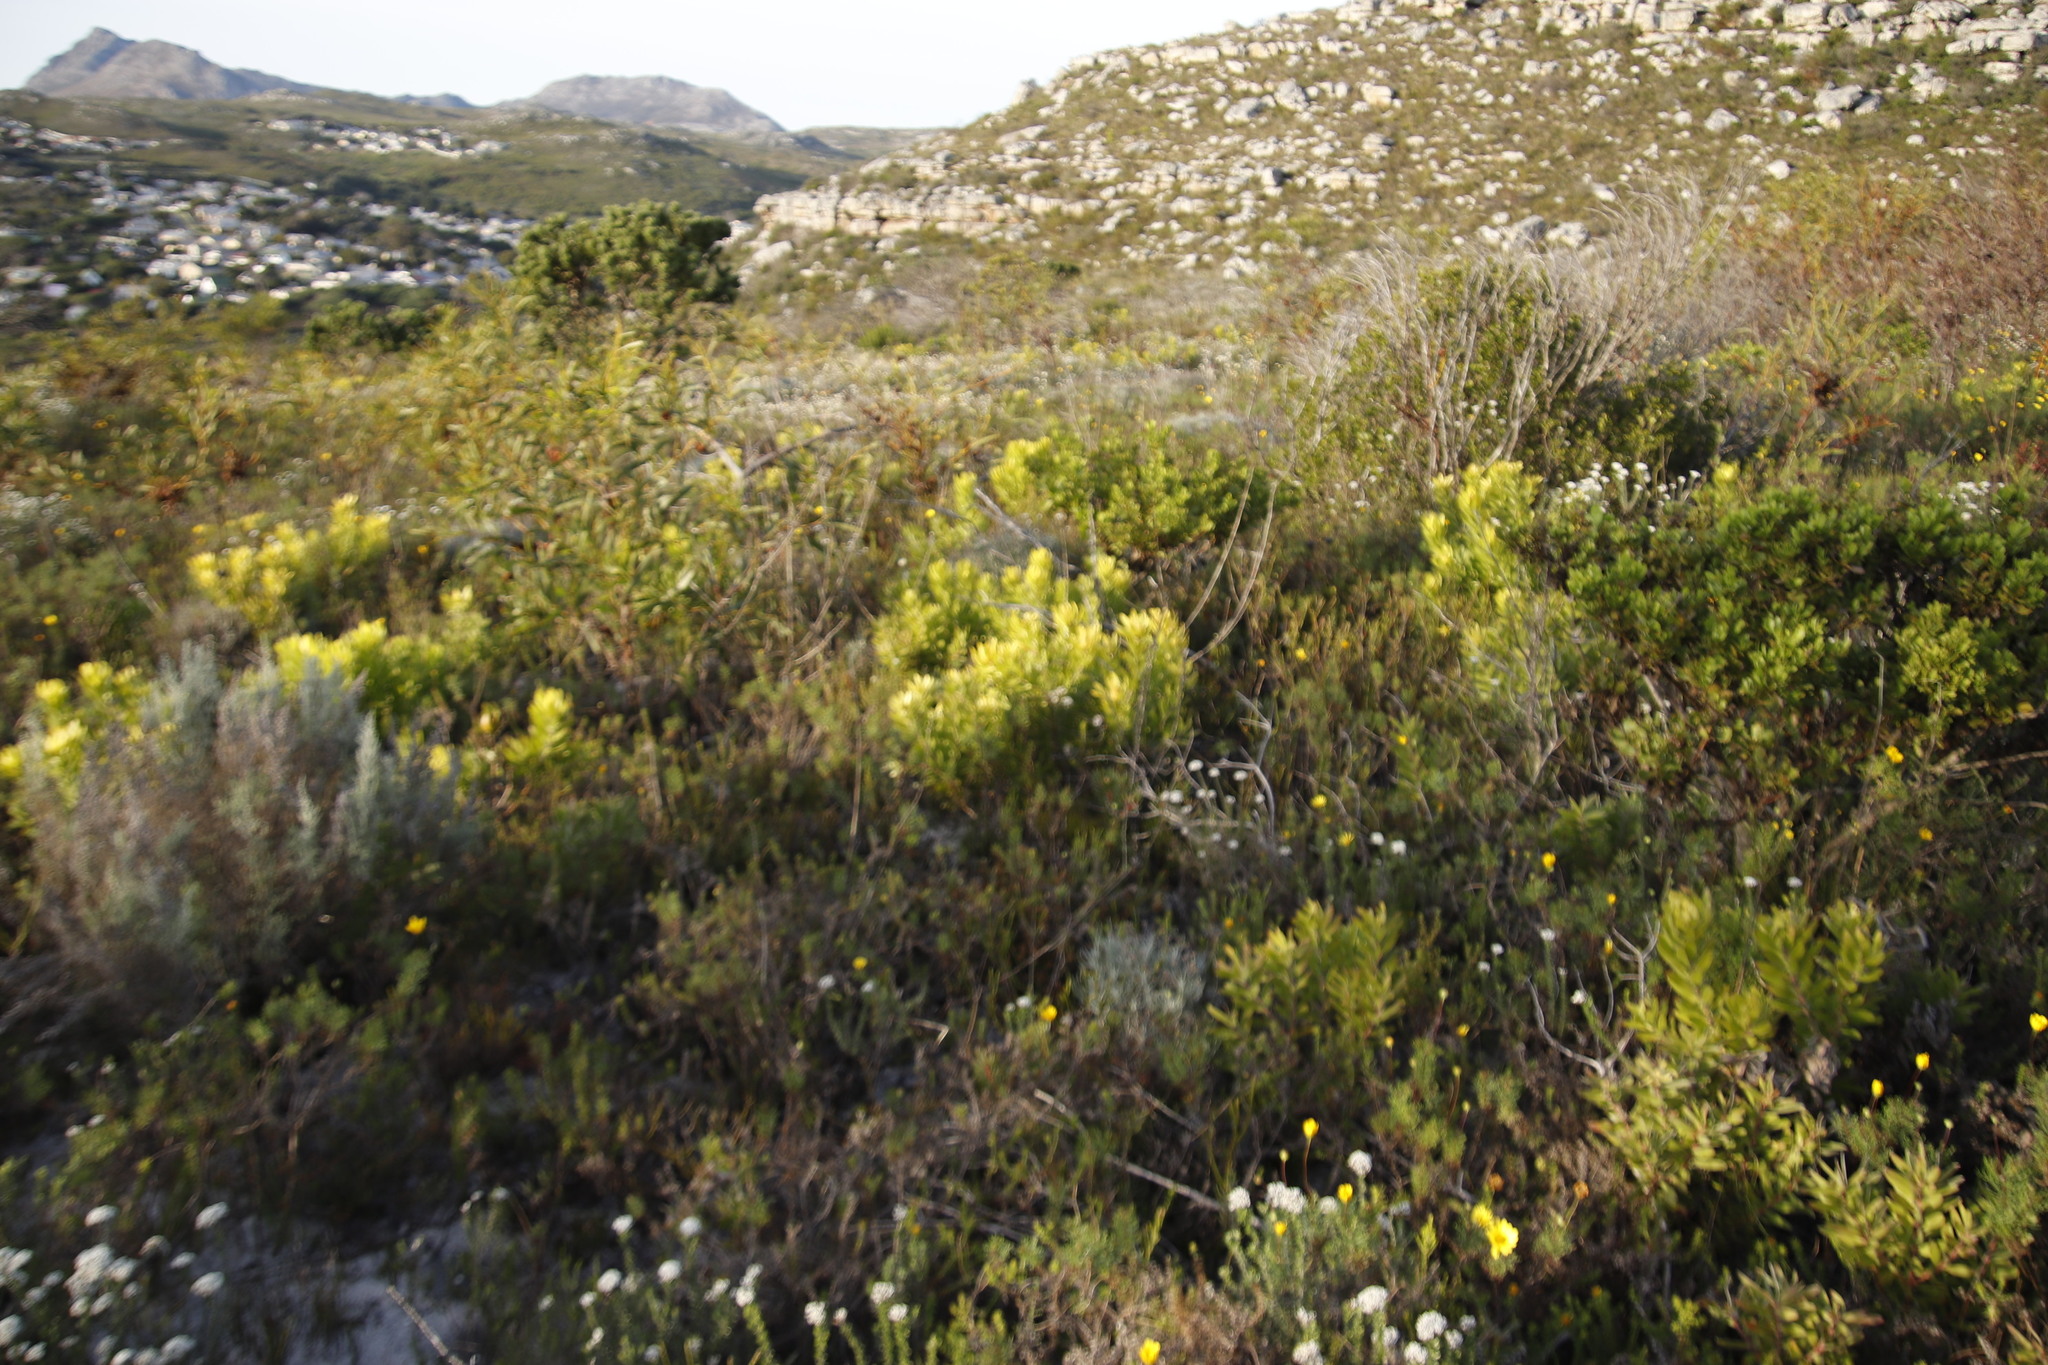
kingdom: Plantae
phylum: Tracheophyta
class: Magnoliopsida
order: Proteales
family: Proteaceae
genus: Leucadendron
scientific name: Leucadendron laureolum
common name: Golden sunshinebush
